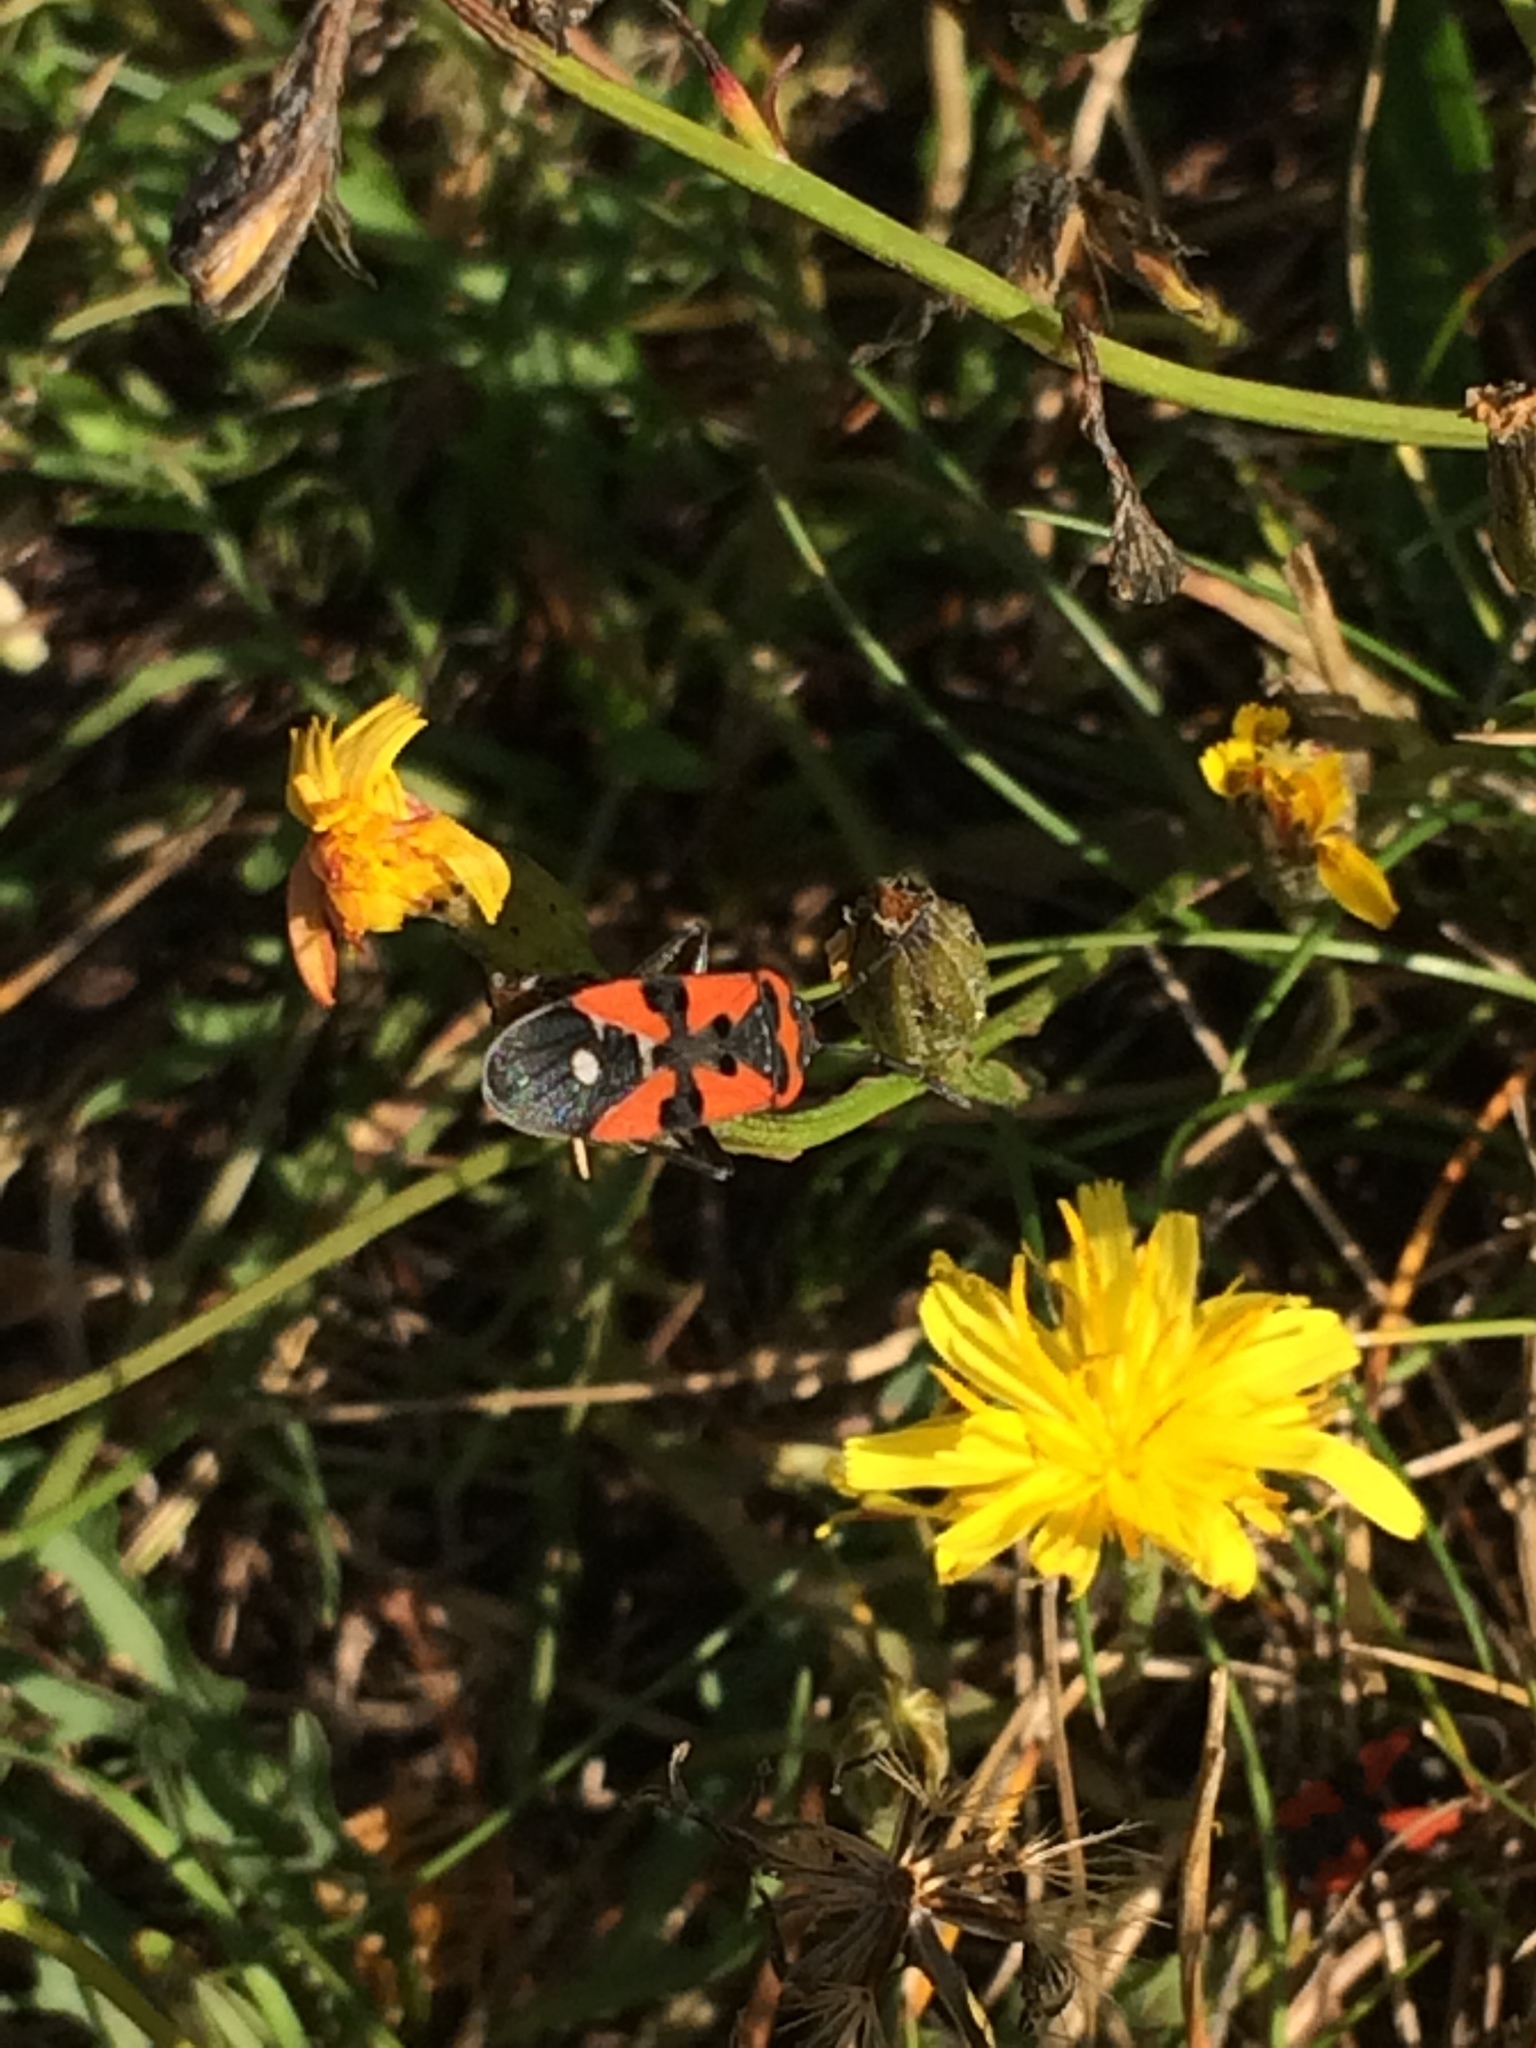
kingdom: Animalia
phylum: Arthropoda
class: Insecta
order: Hemiptera
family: Lygaeidae
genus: Lygaeus
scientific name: Lygaeus equestris
